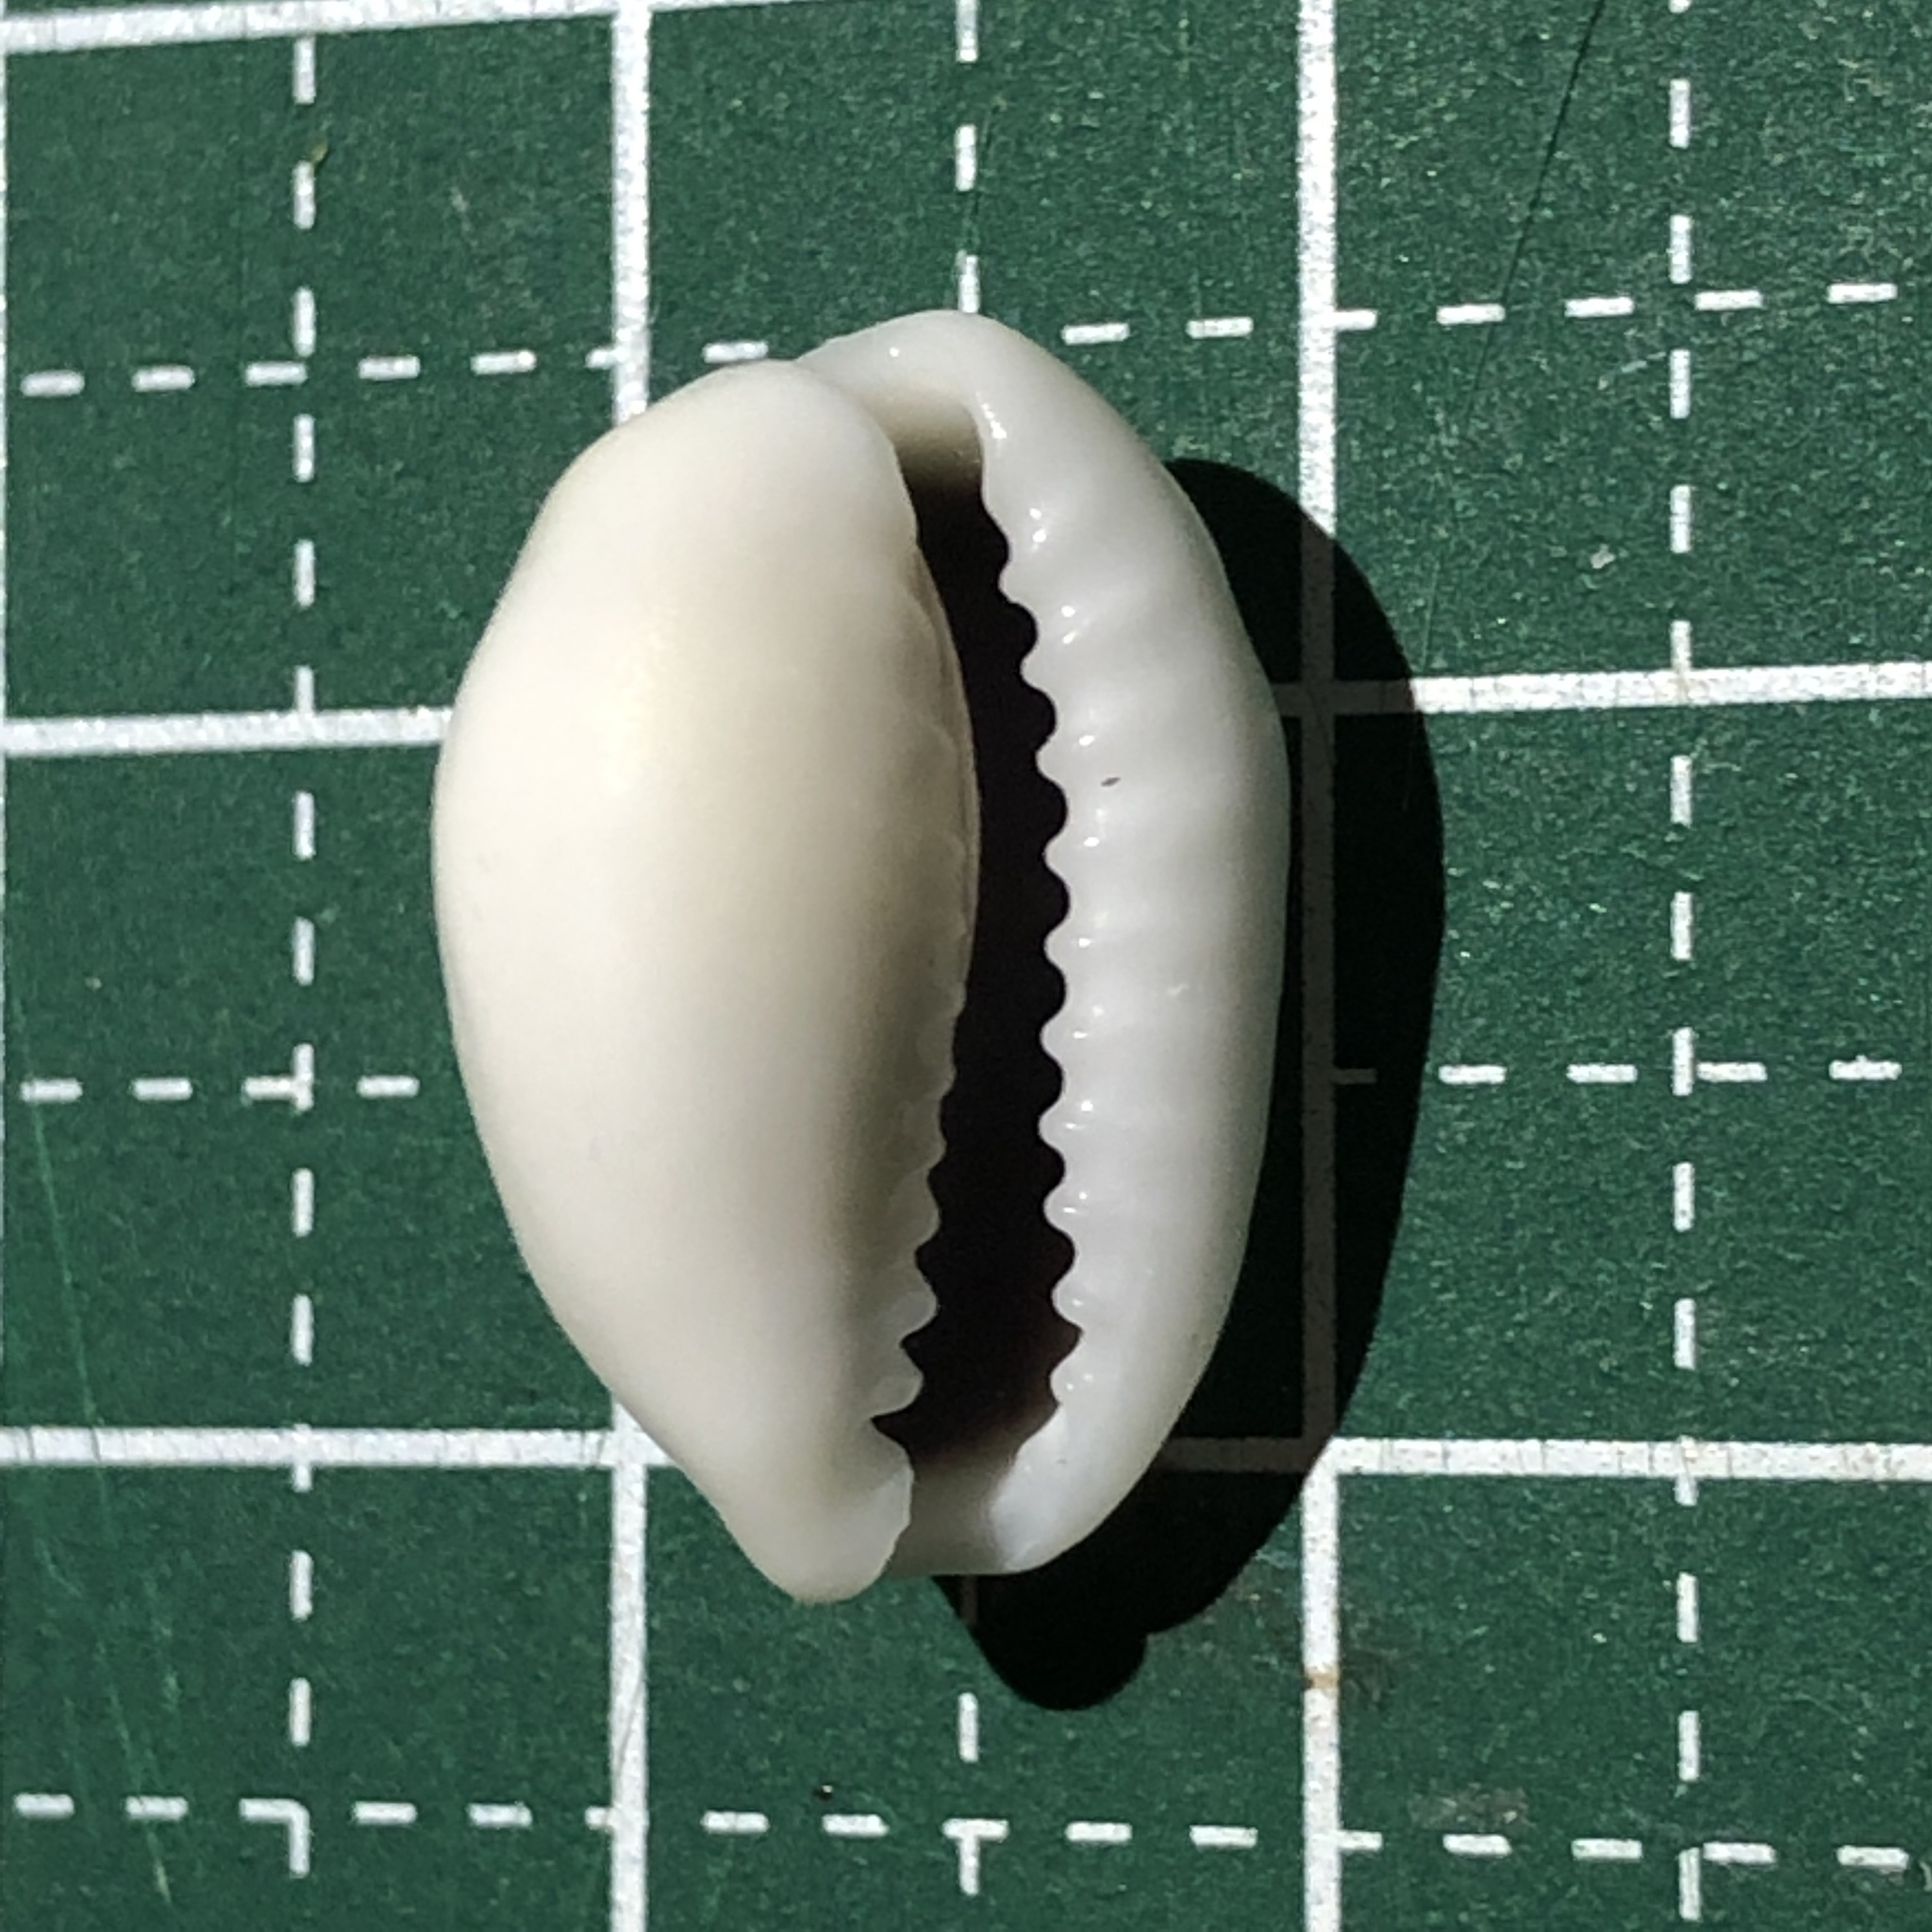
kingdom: Animalia
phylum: Mollusca
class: Gastropoda
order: Littorinimorpha
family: Cypraeidae
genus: Monetaria
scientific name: Monetaria moneta
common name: Money cowrie
